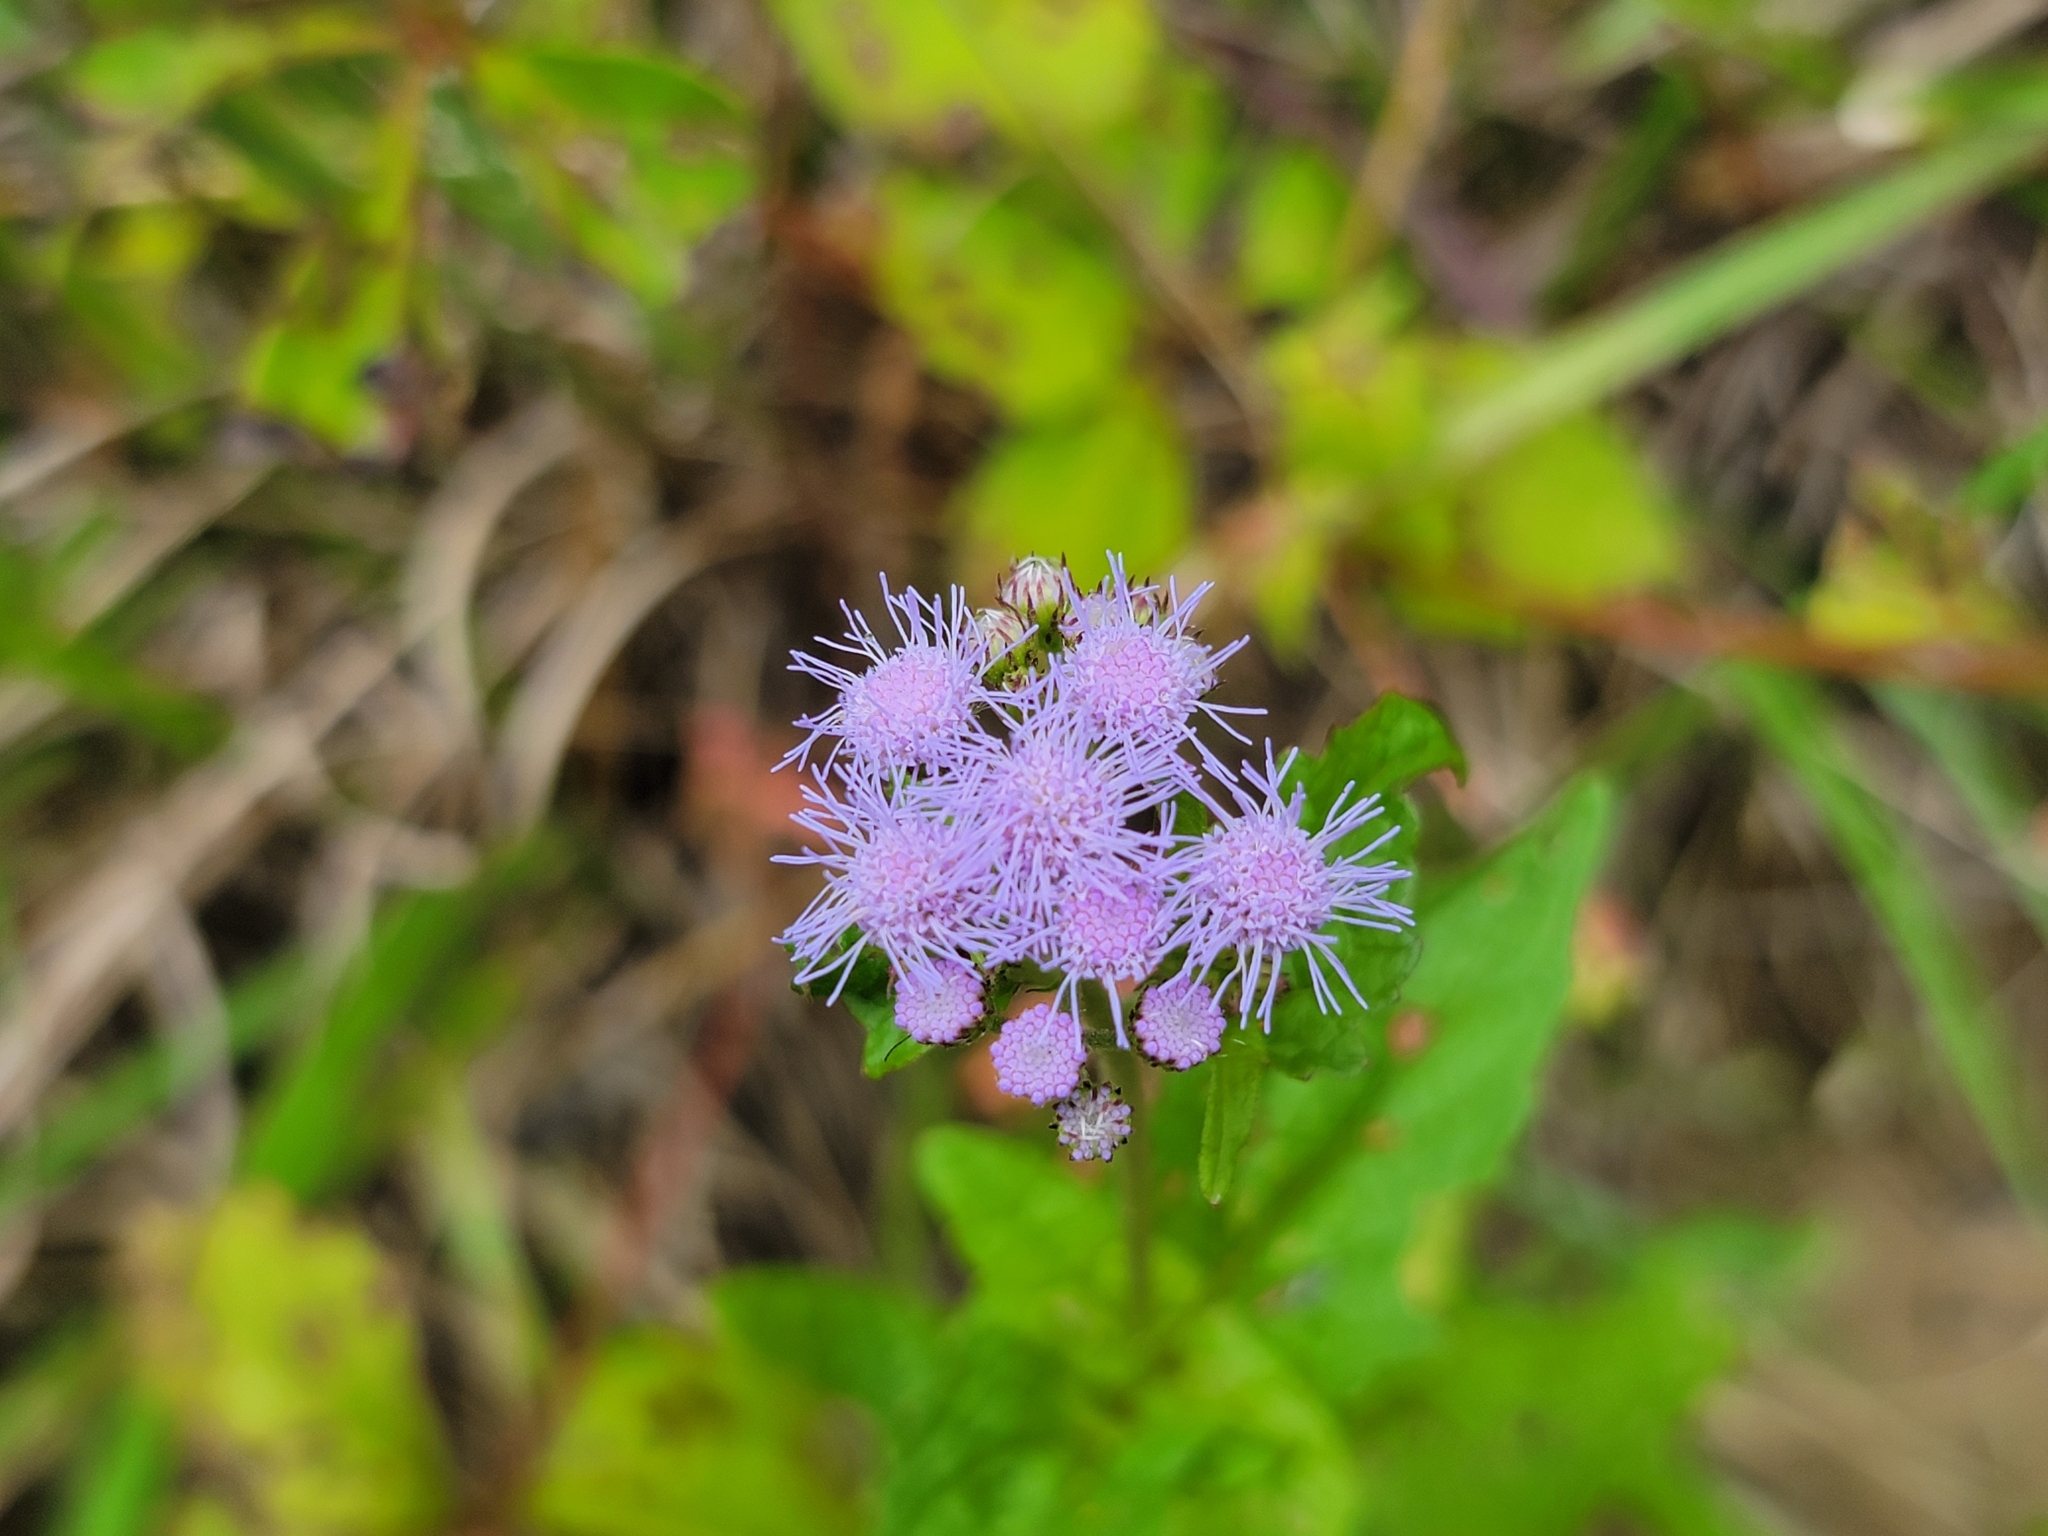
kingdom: Plantae
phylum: Tracheophyta
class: Magnoliopsida
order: Asterales
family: Asteraceae
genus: Conoclinium
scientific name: Conoclinium coelestinum
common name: Blue mistflower
